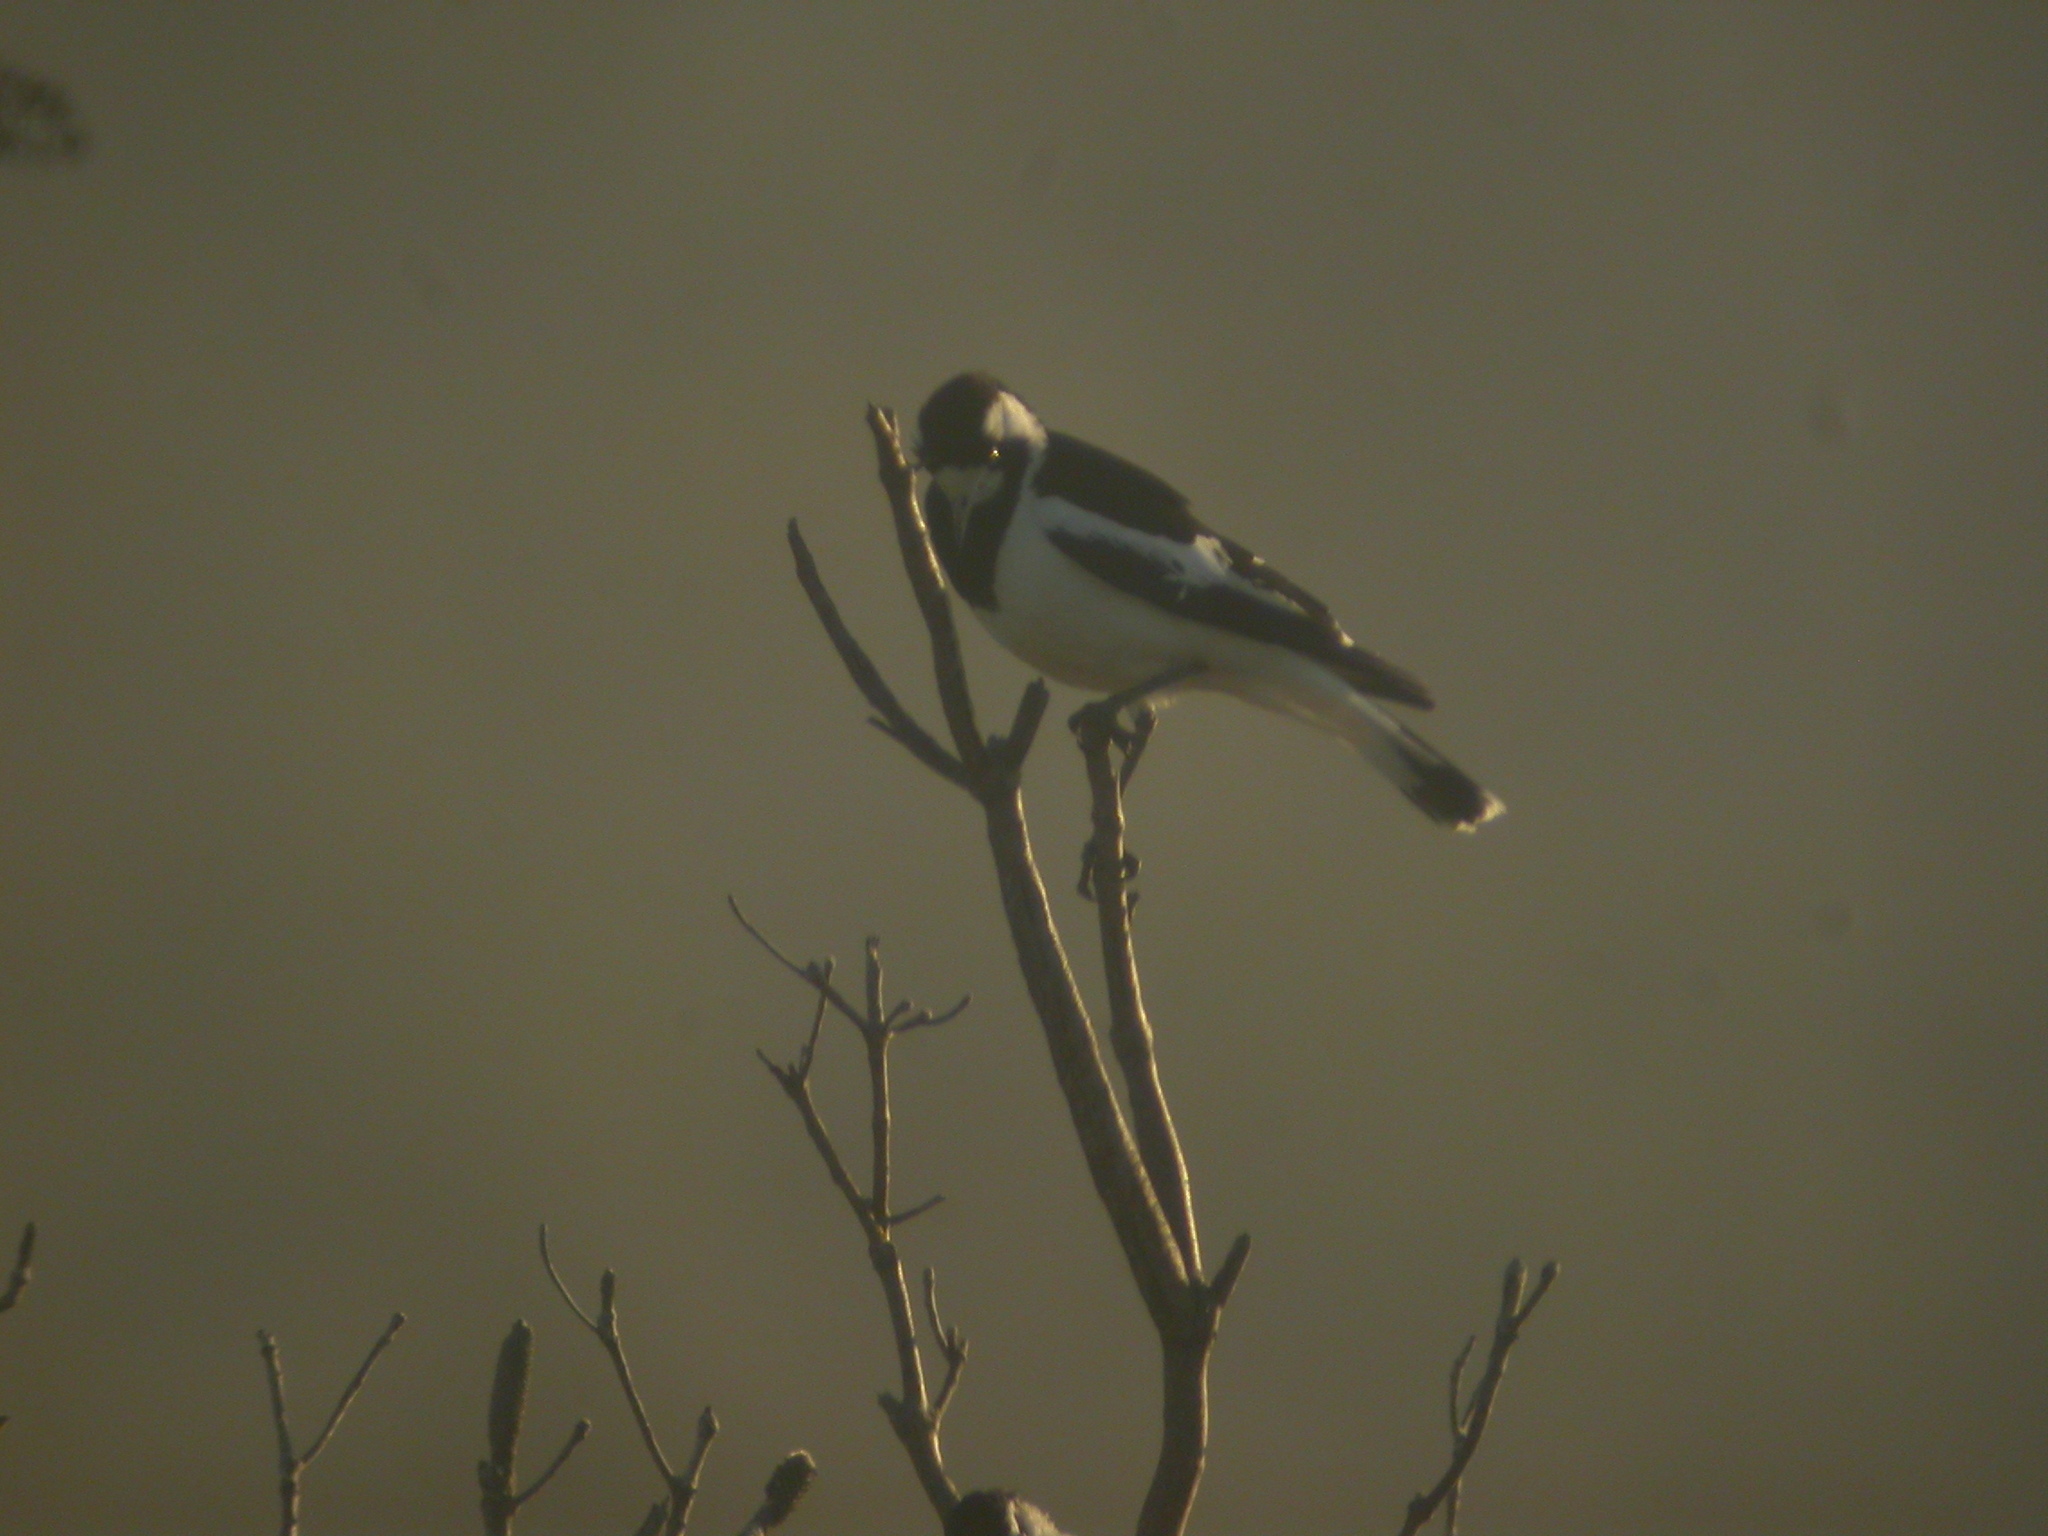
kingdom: Animalia
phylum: Chordata
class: Aves
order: Passeriformes
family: Monarchidae
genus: Grallina
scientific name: Grallina cyanoleuca
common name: Magpie-lark
